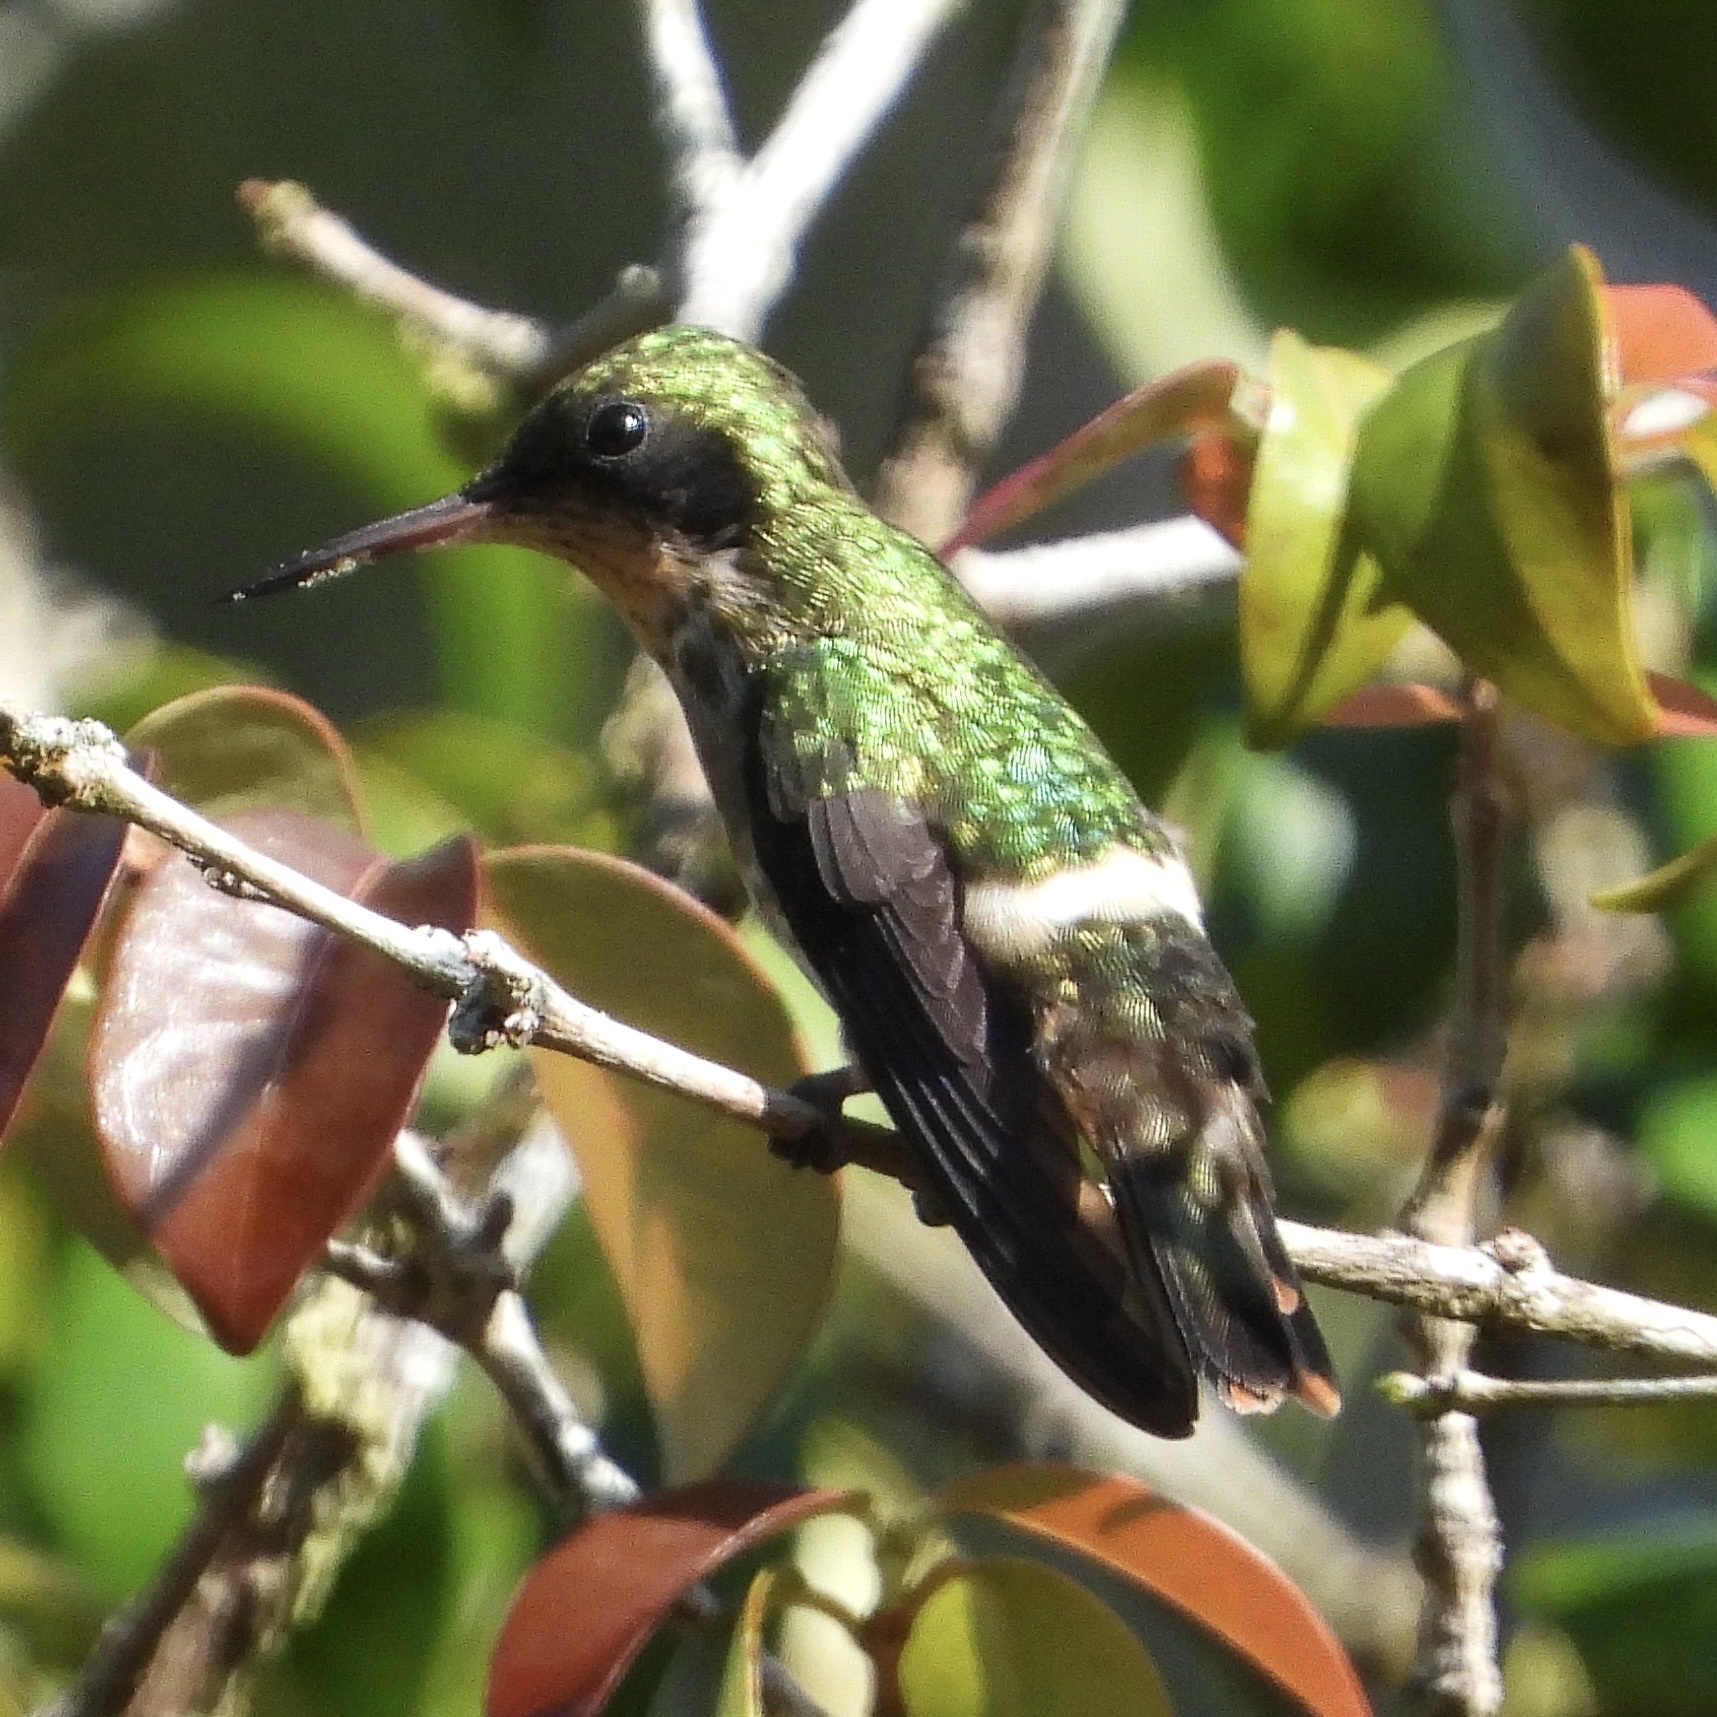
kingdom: Animalia
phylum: Chordata
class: Aves
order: Apodiformes
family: Trochilidae
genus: Lophornis
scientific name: Lophornis helenae
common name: Black-crested coquette
